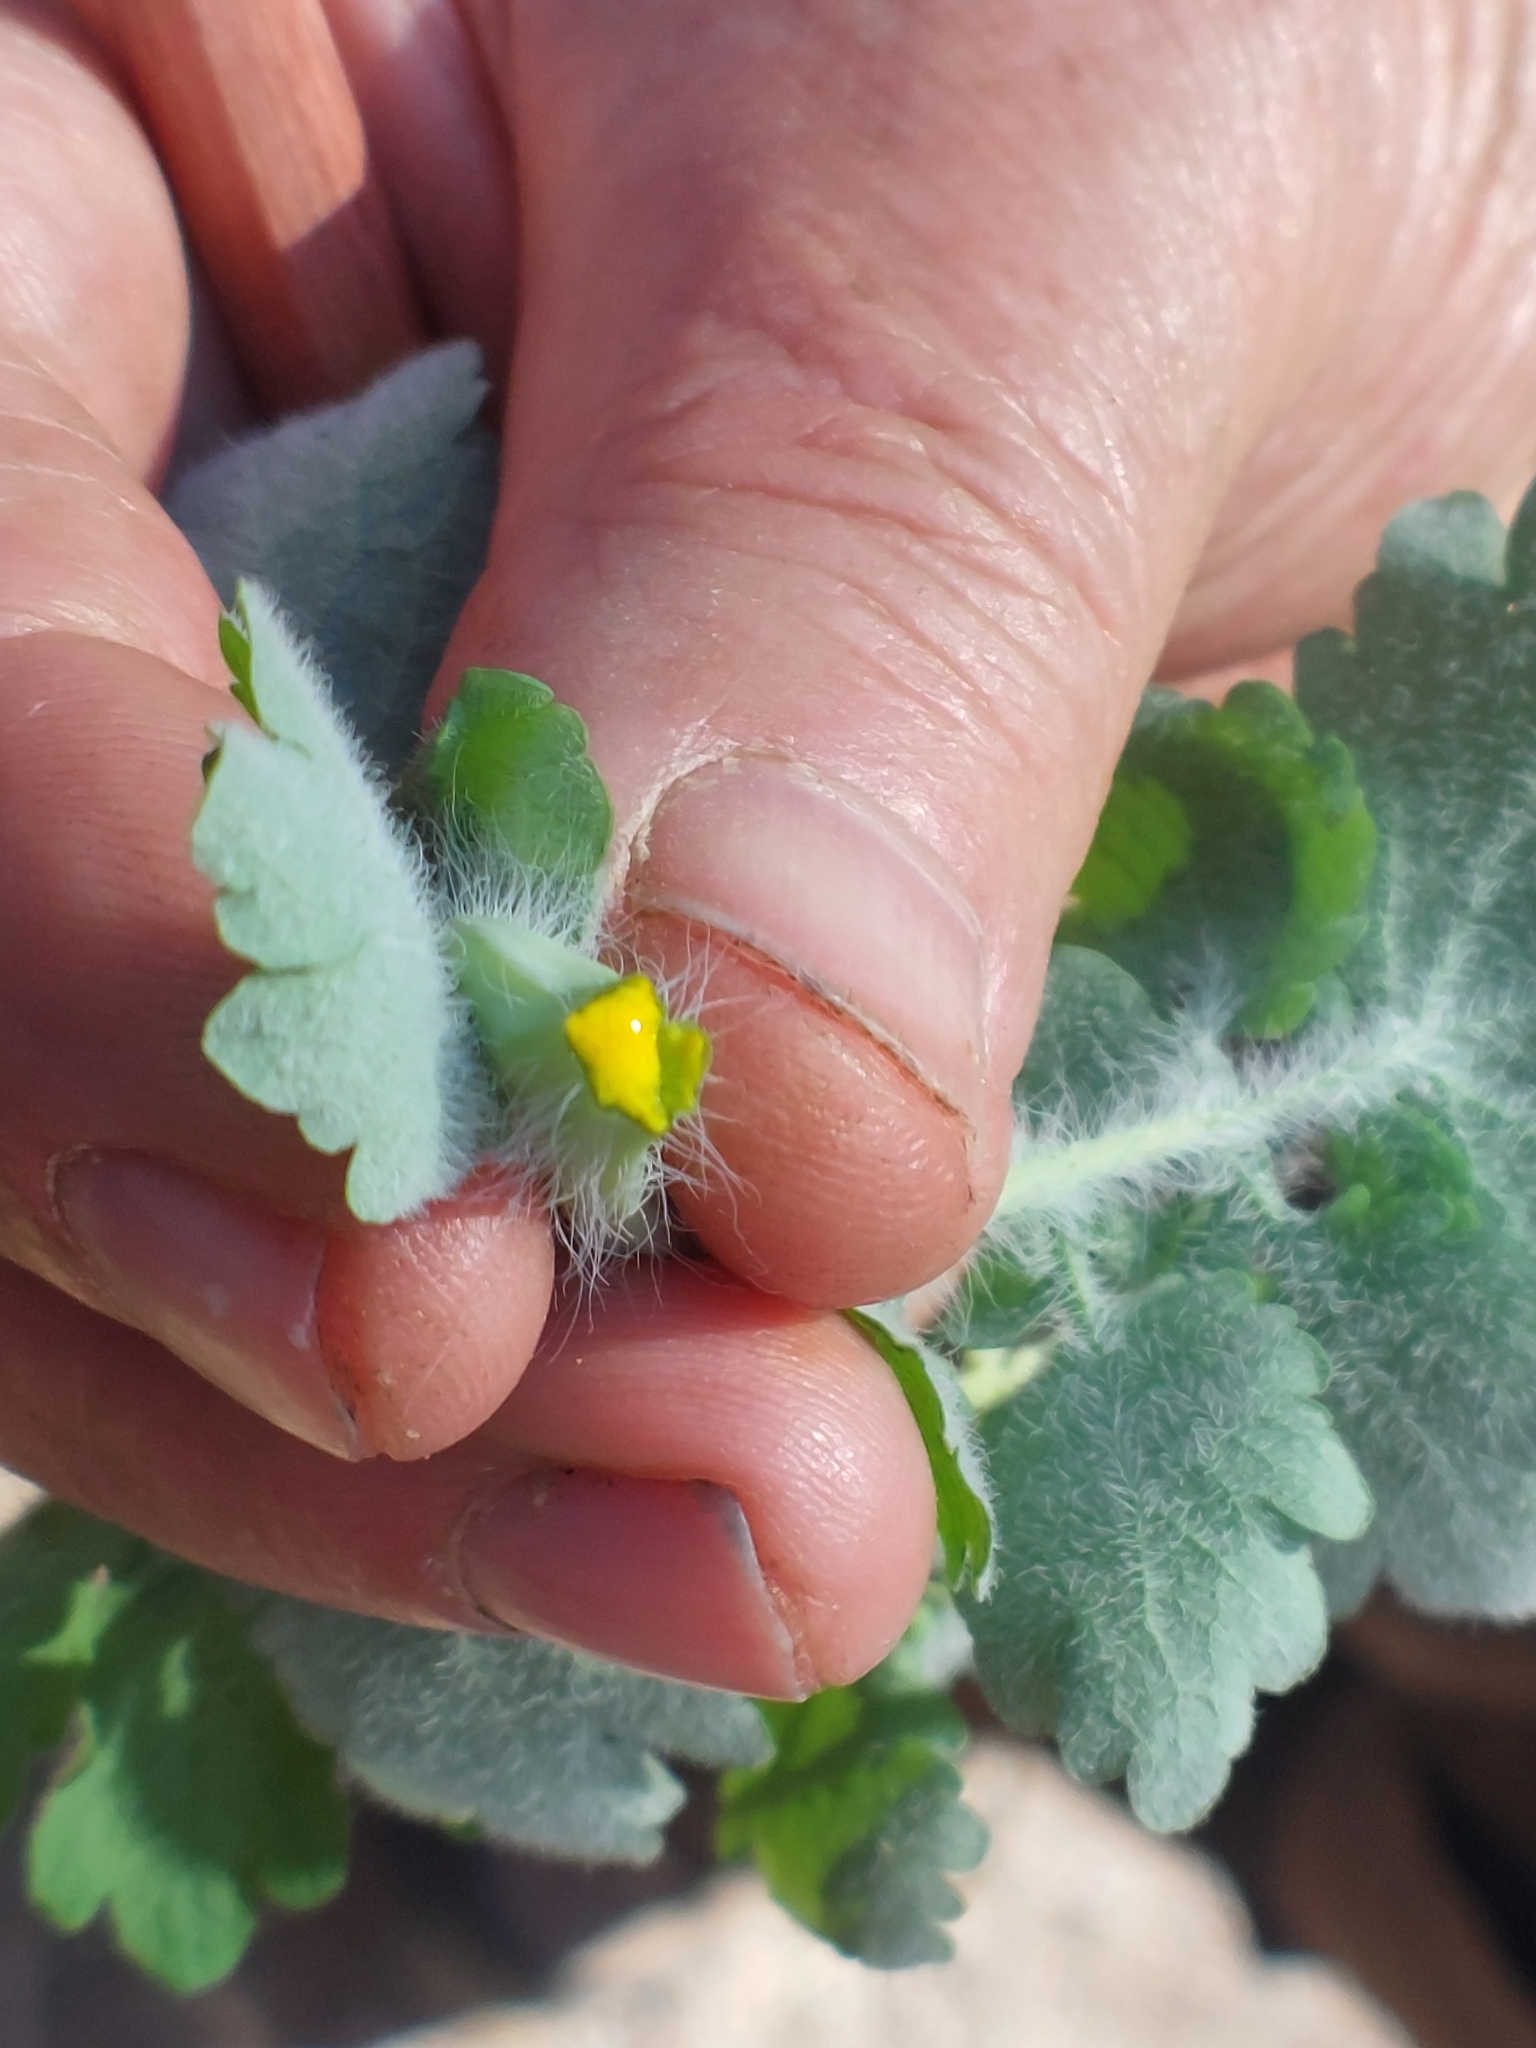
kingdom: Plantae
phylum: Tracheophyta
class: Magnoliopsida
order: Ranunculales
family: Papaveraceae
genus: Chelidonium
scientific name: Chelidonium majus
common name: Greater celandine
